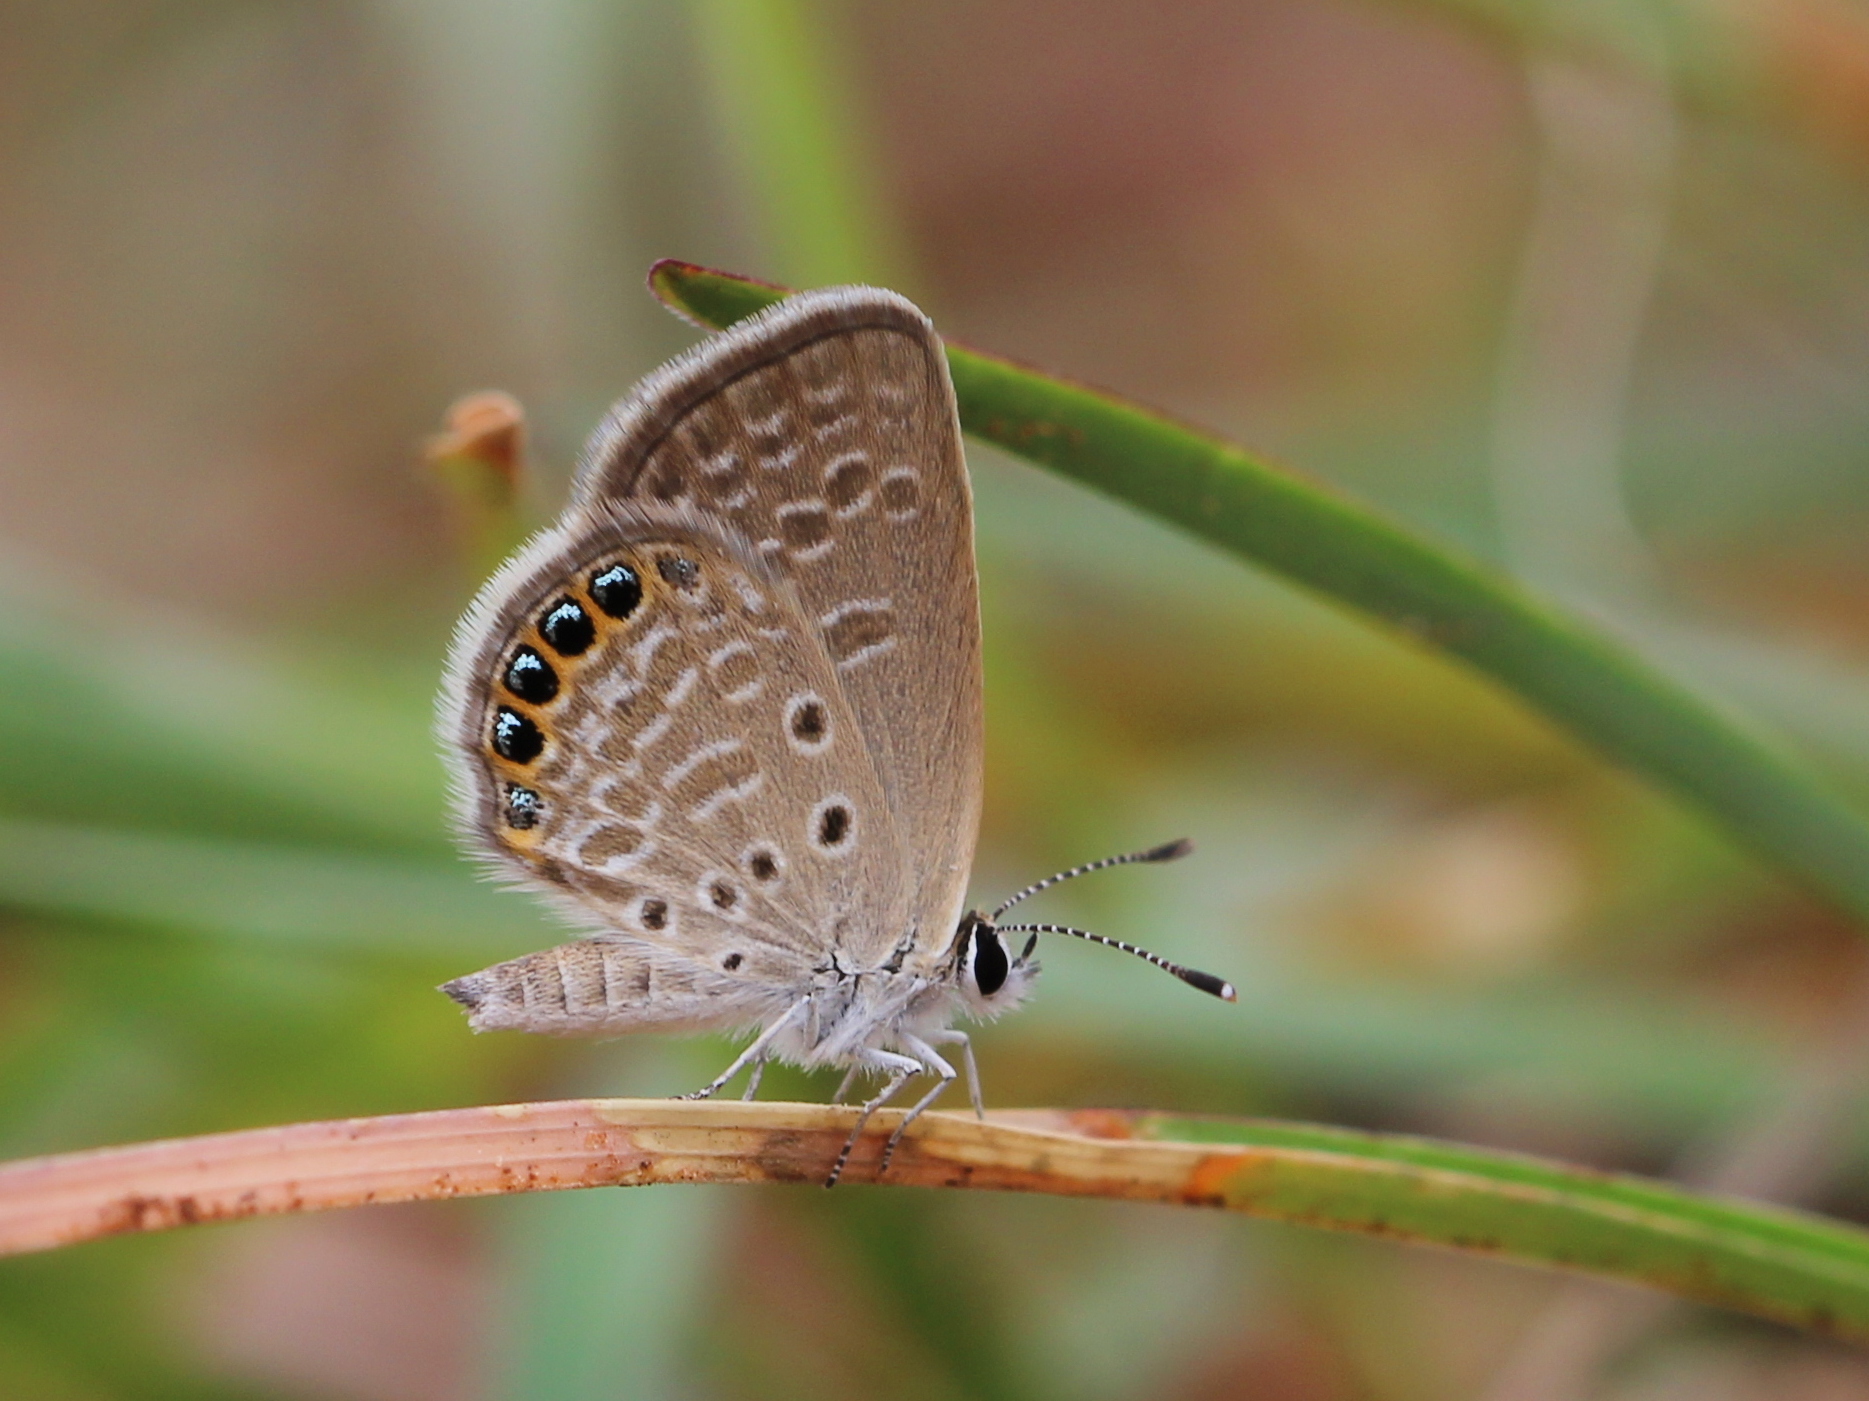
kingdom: Animalia
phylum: Arthropoda
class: Insecta
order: Lepidoptera
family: Lycaenidae
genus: Freyeria
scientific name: Freyeria putli
